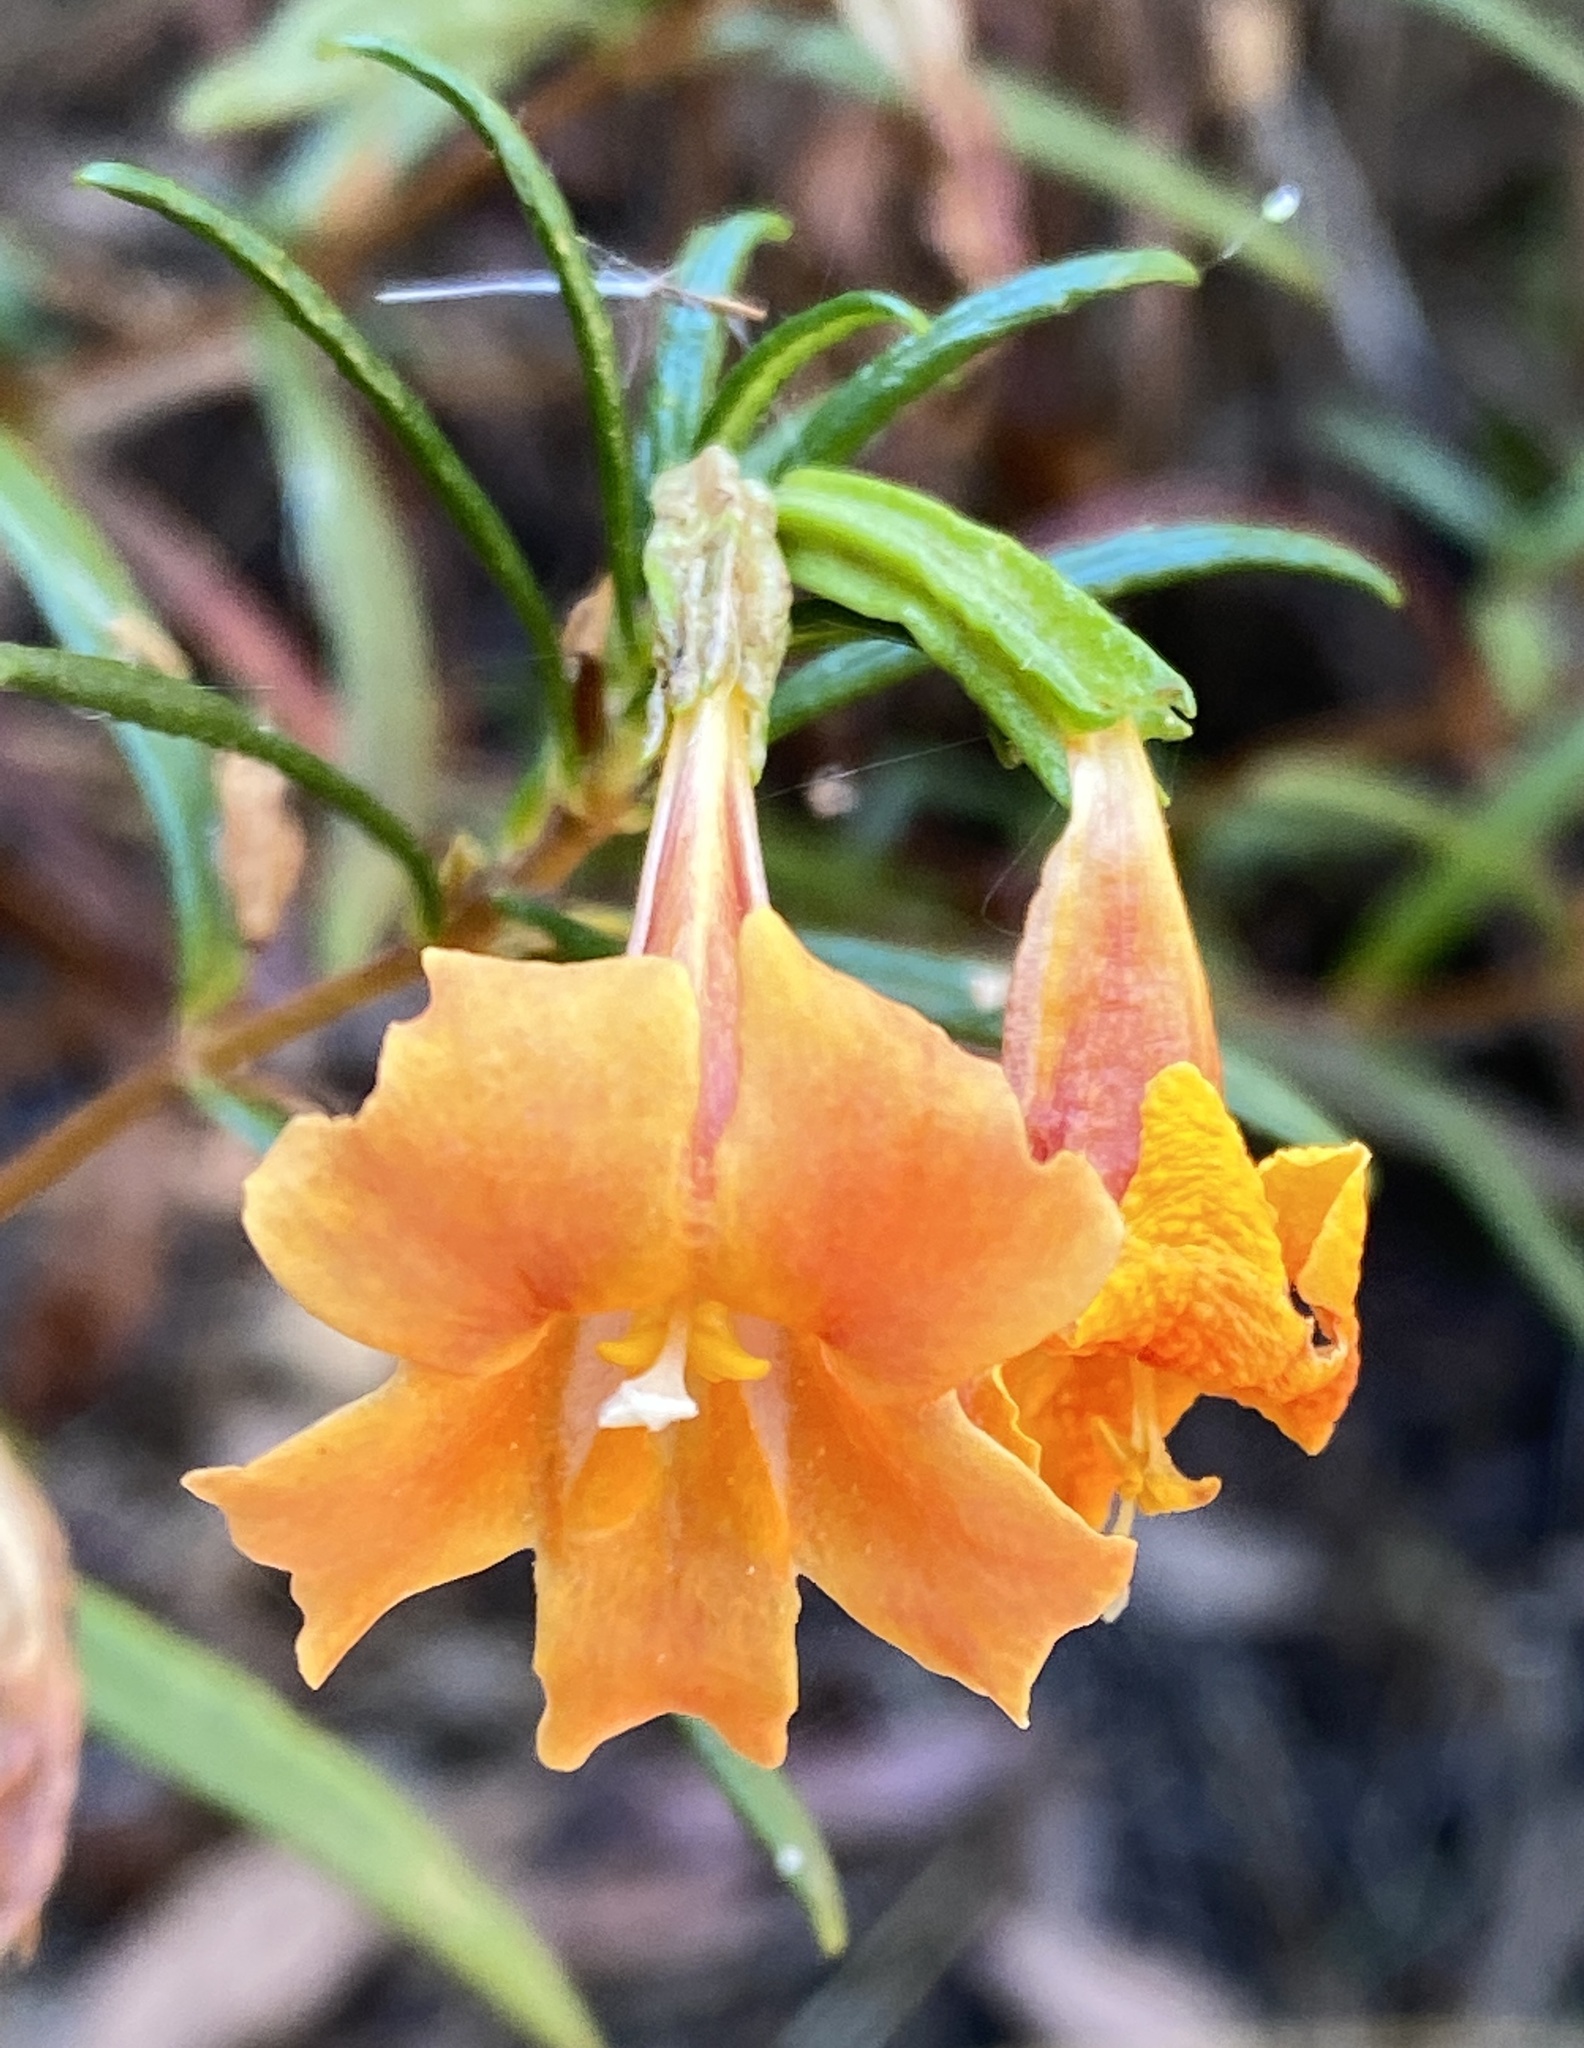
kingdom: Plantae
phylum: Tracheophyta
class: Magnoliopsida
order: Lamiales
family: Phrymaceae
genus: Diplacus
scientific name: Diplacus australis
